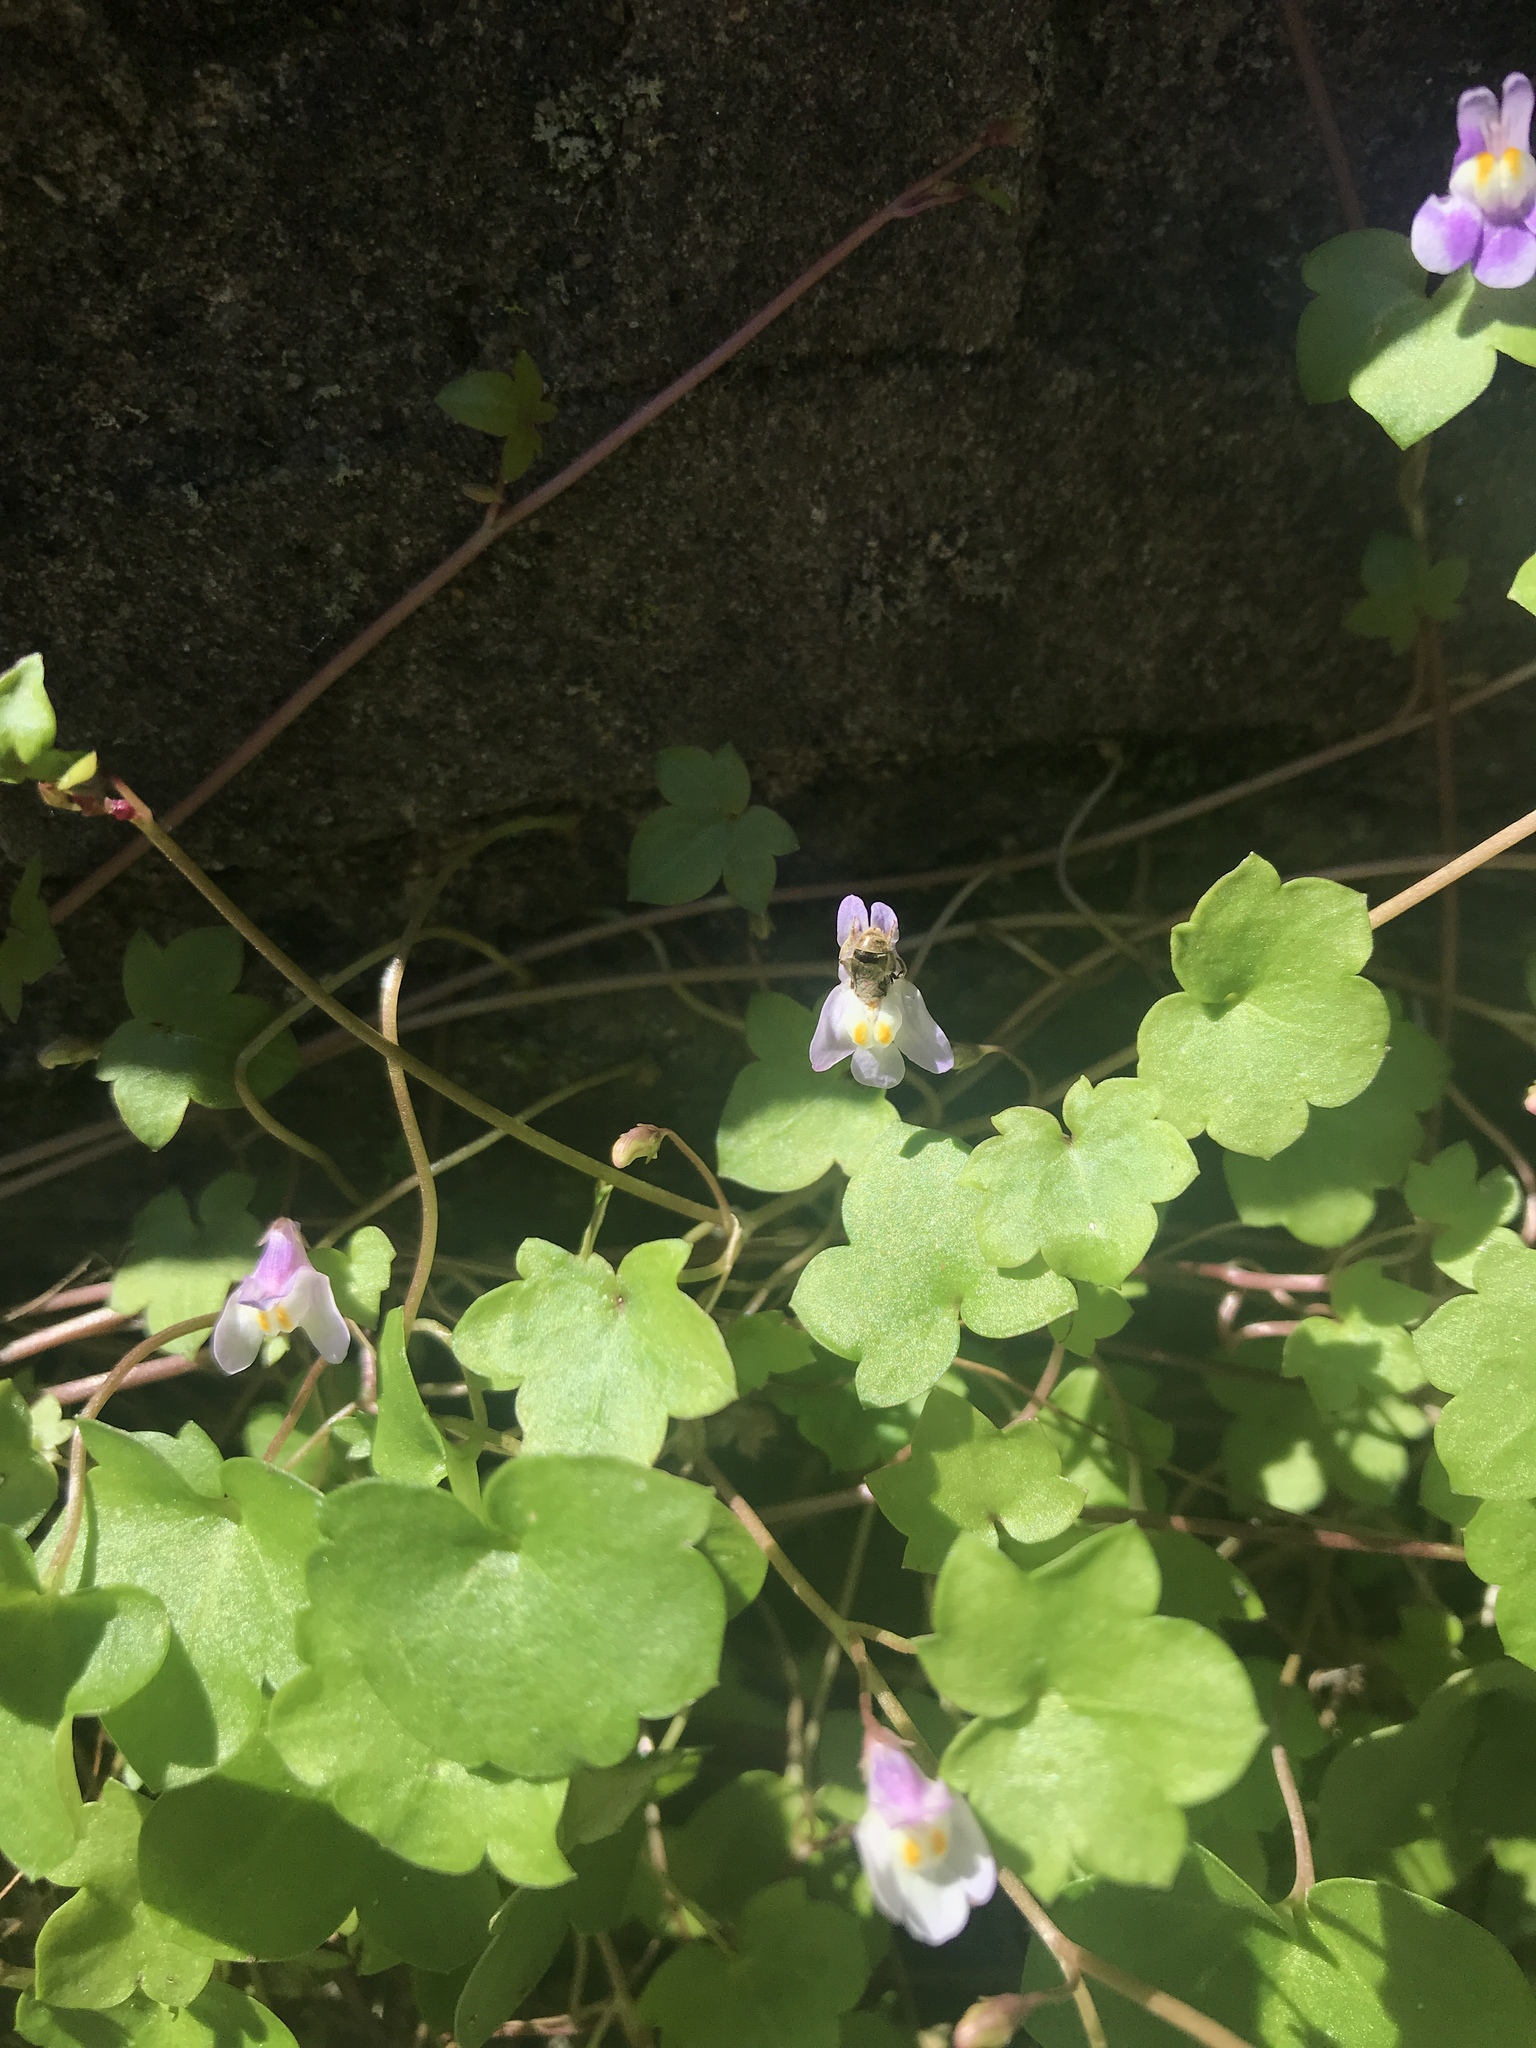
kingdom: Plantae
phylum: Tracheophyta
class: Magnoliopsida
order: Lamiales
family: Plantaginaceae
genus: Cymbalaria
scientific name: Cymbalaria muralis
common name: Ivy-leaved toadflax
